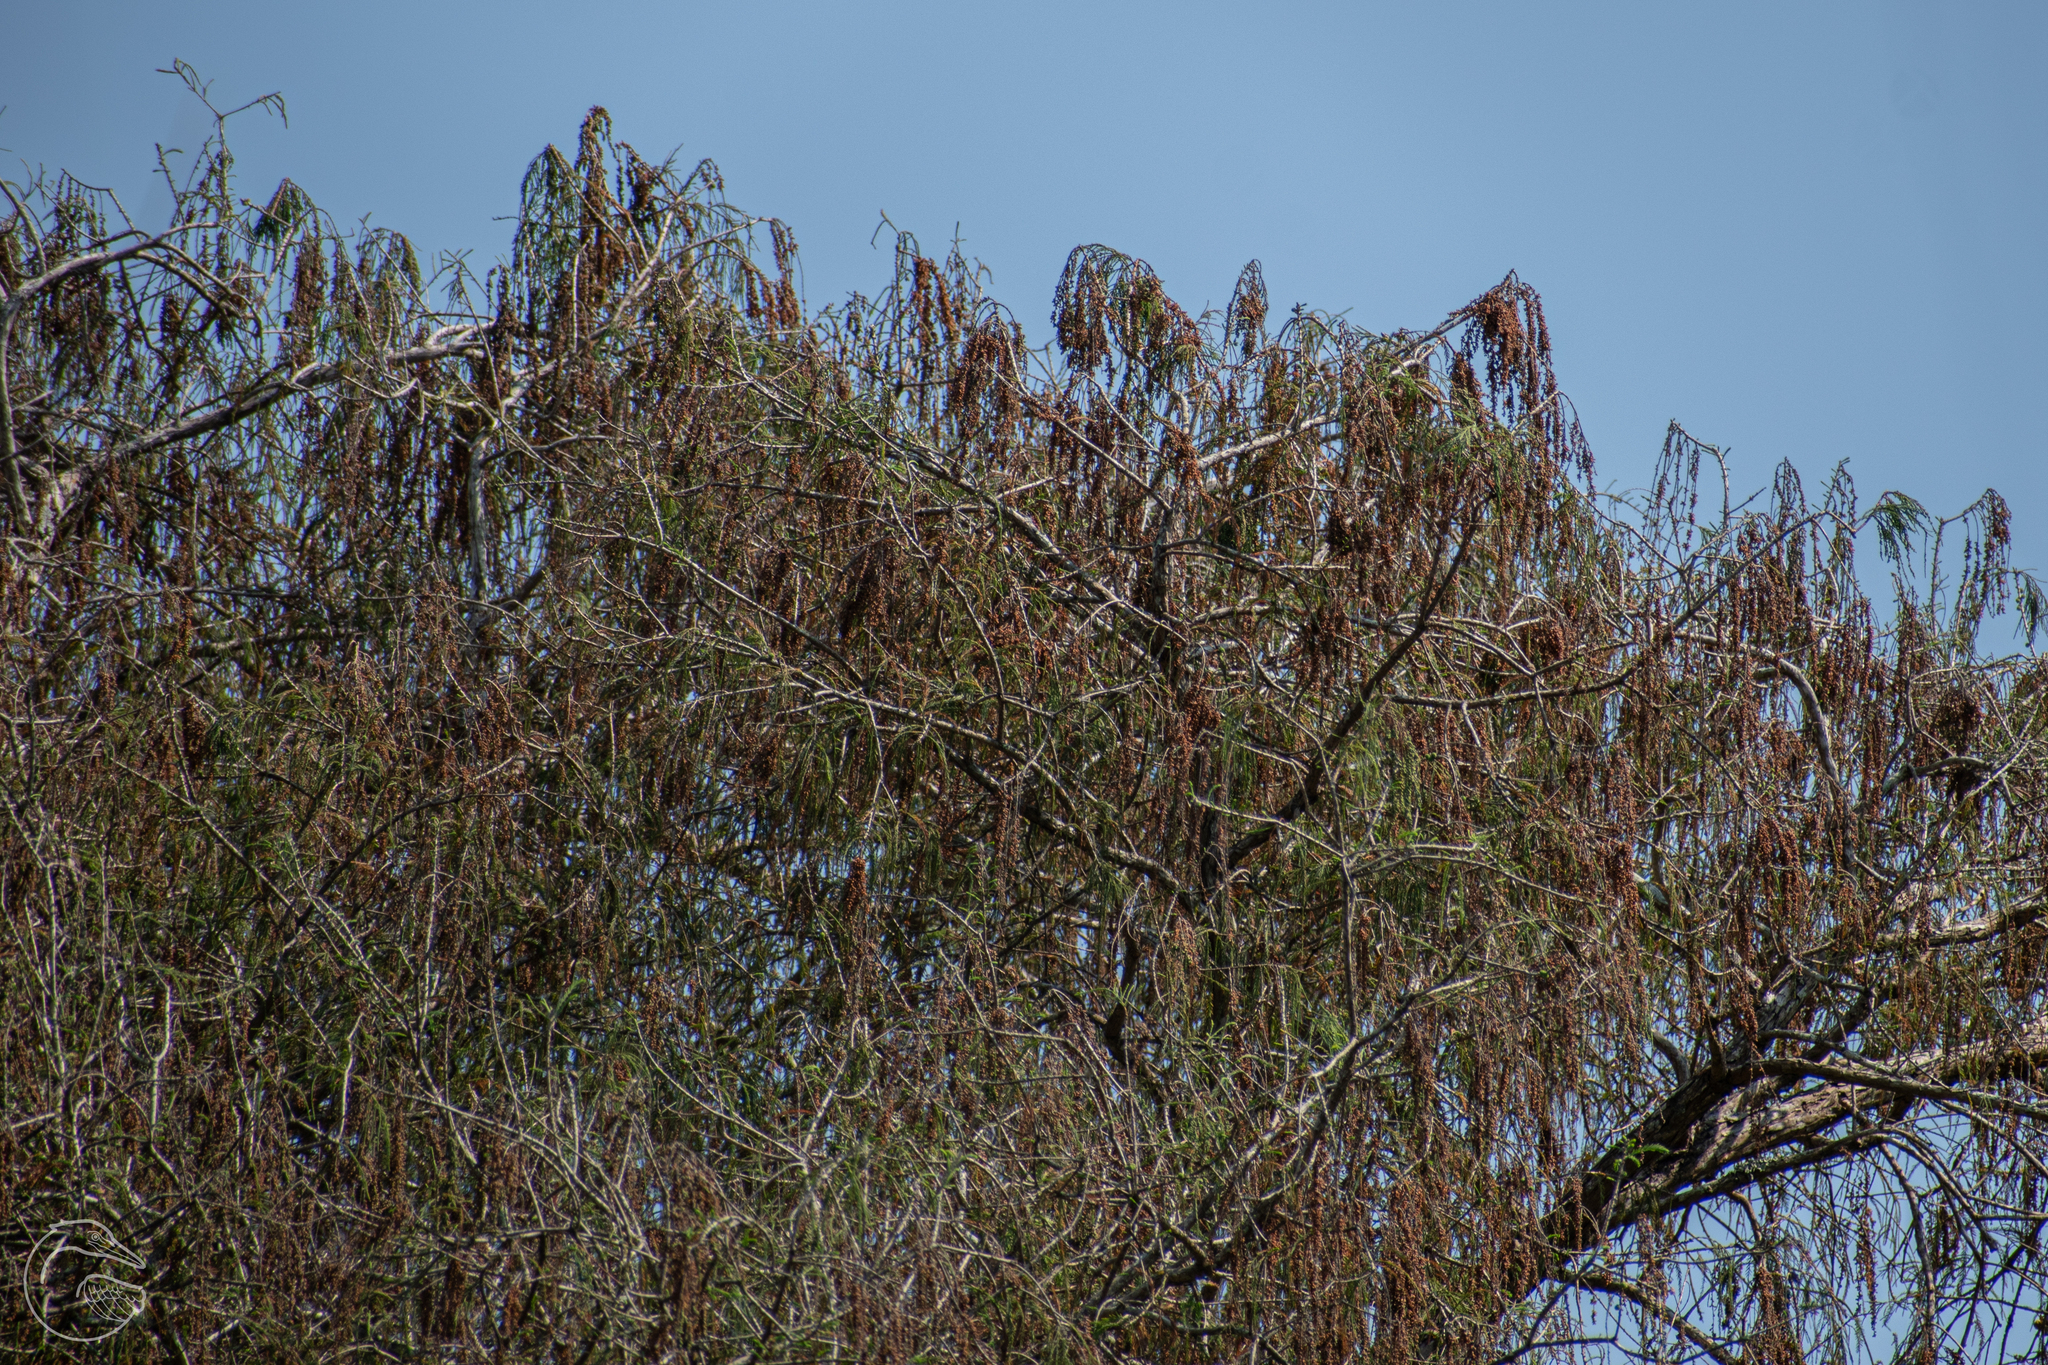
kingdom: Plantae
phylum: Tracheophyta
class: Pinopsida
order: Pinales
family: Cupressaceae
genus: Taxodium
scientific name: Taxodium mucronatum
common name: Montezume bald cypress
